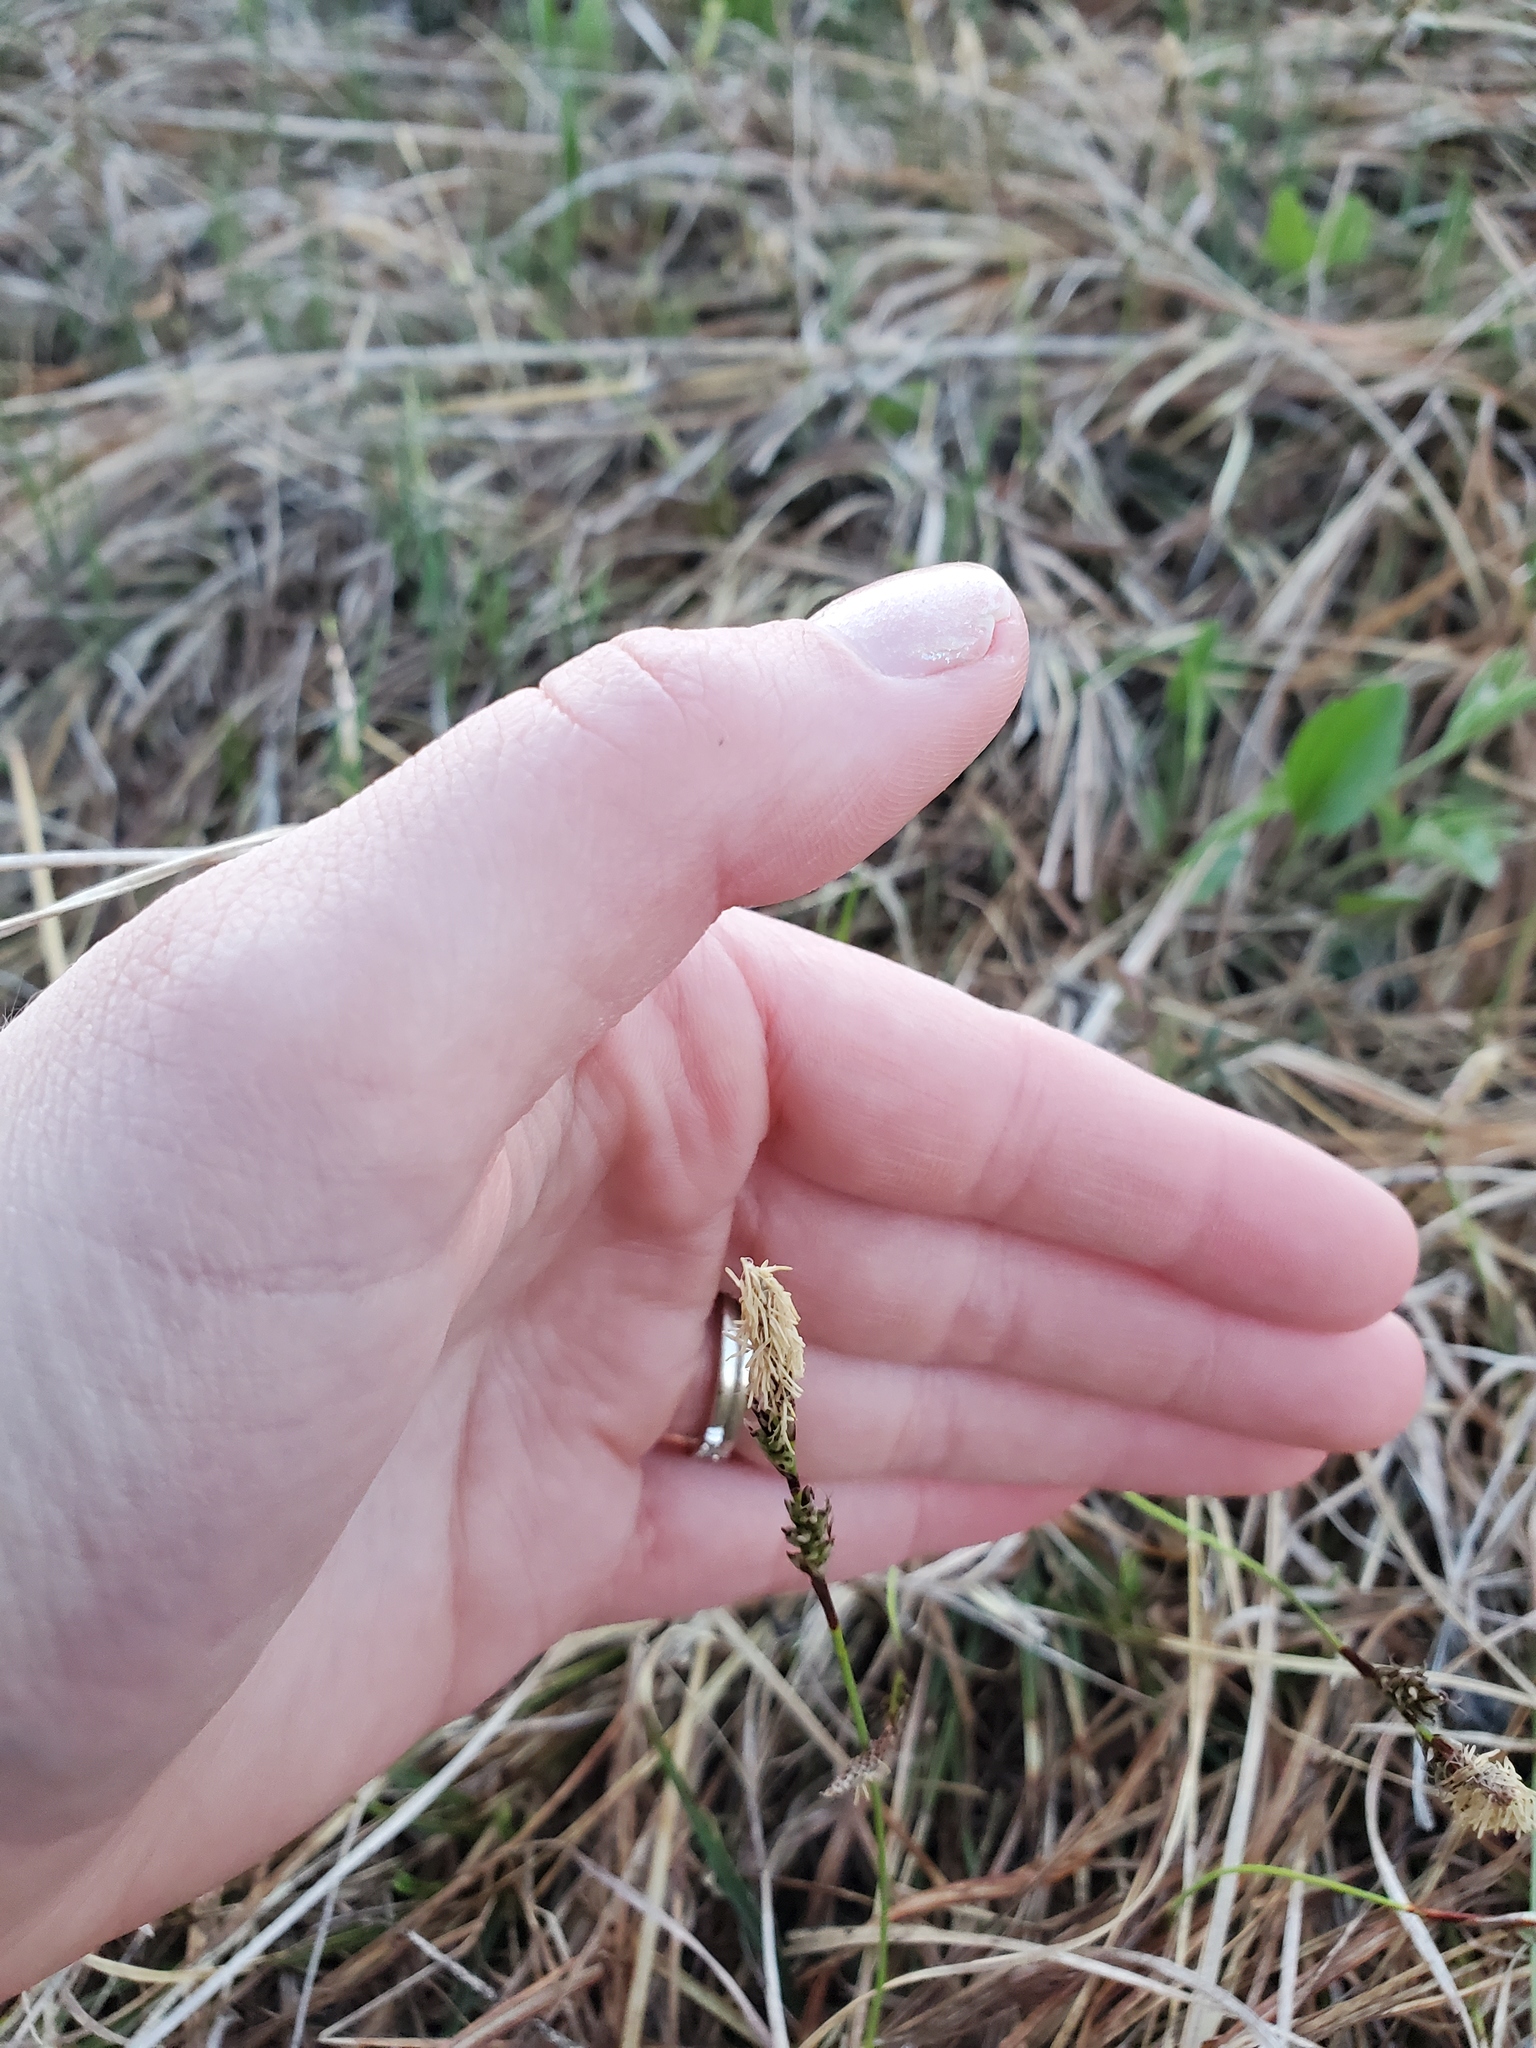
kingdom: Plantae
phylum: Tracheophyta
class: Liliopsida
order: Poales
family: Cyperaceae
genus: Carex
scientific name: Carex richardsonii
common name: Prairie hummock sedge
